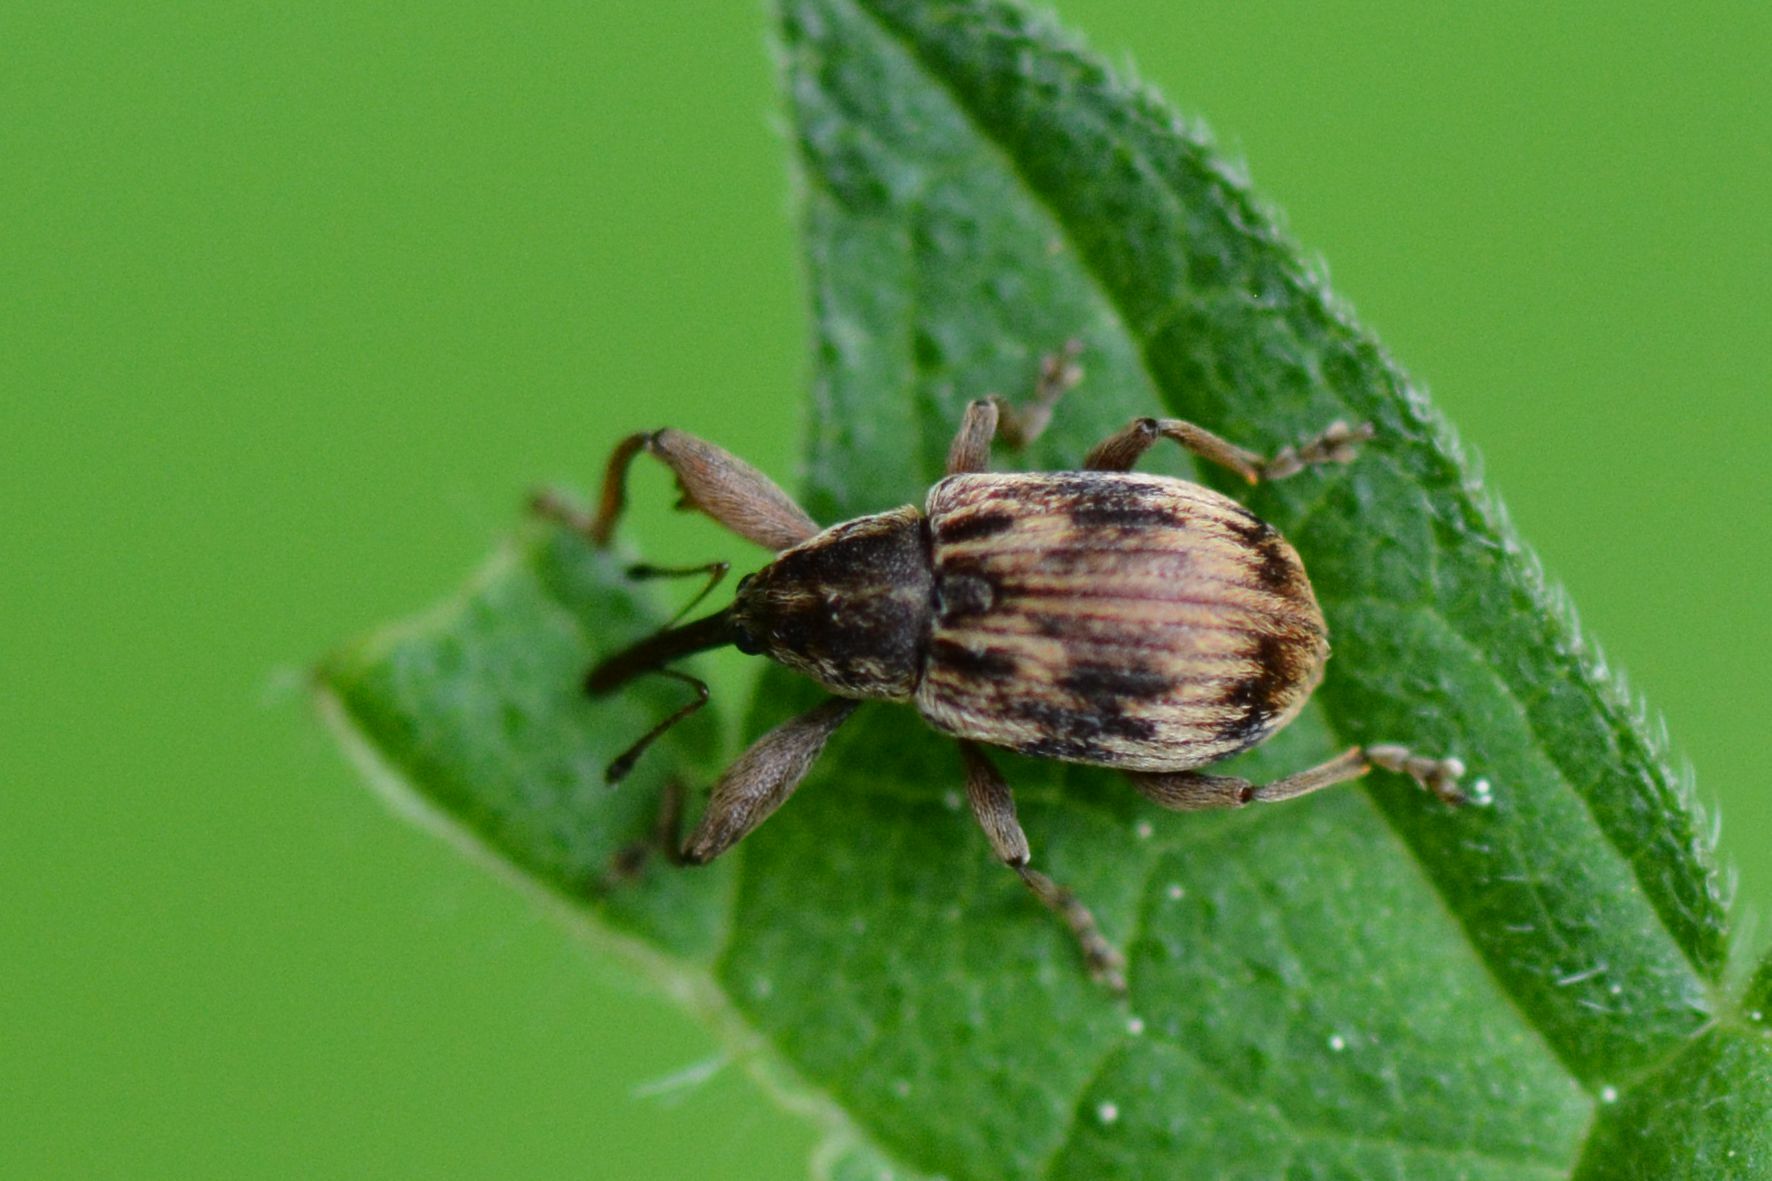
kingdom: Animalia
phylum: Arthropoda
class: Insecta
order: Coleoptera
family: Curculionidae
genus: Anthonomus
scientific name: Anthonomus rectirostris
